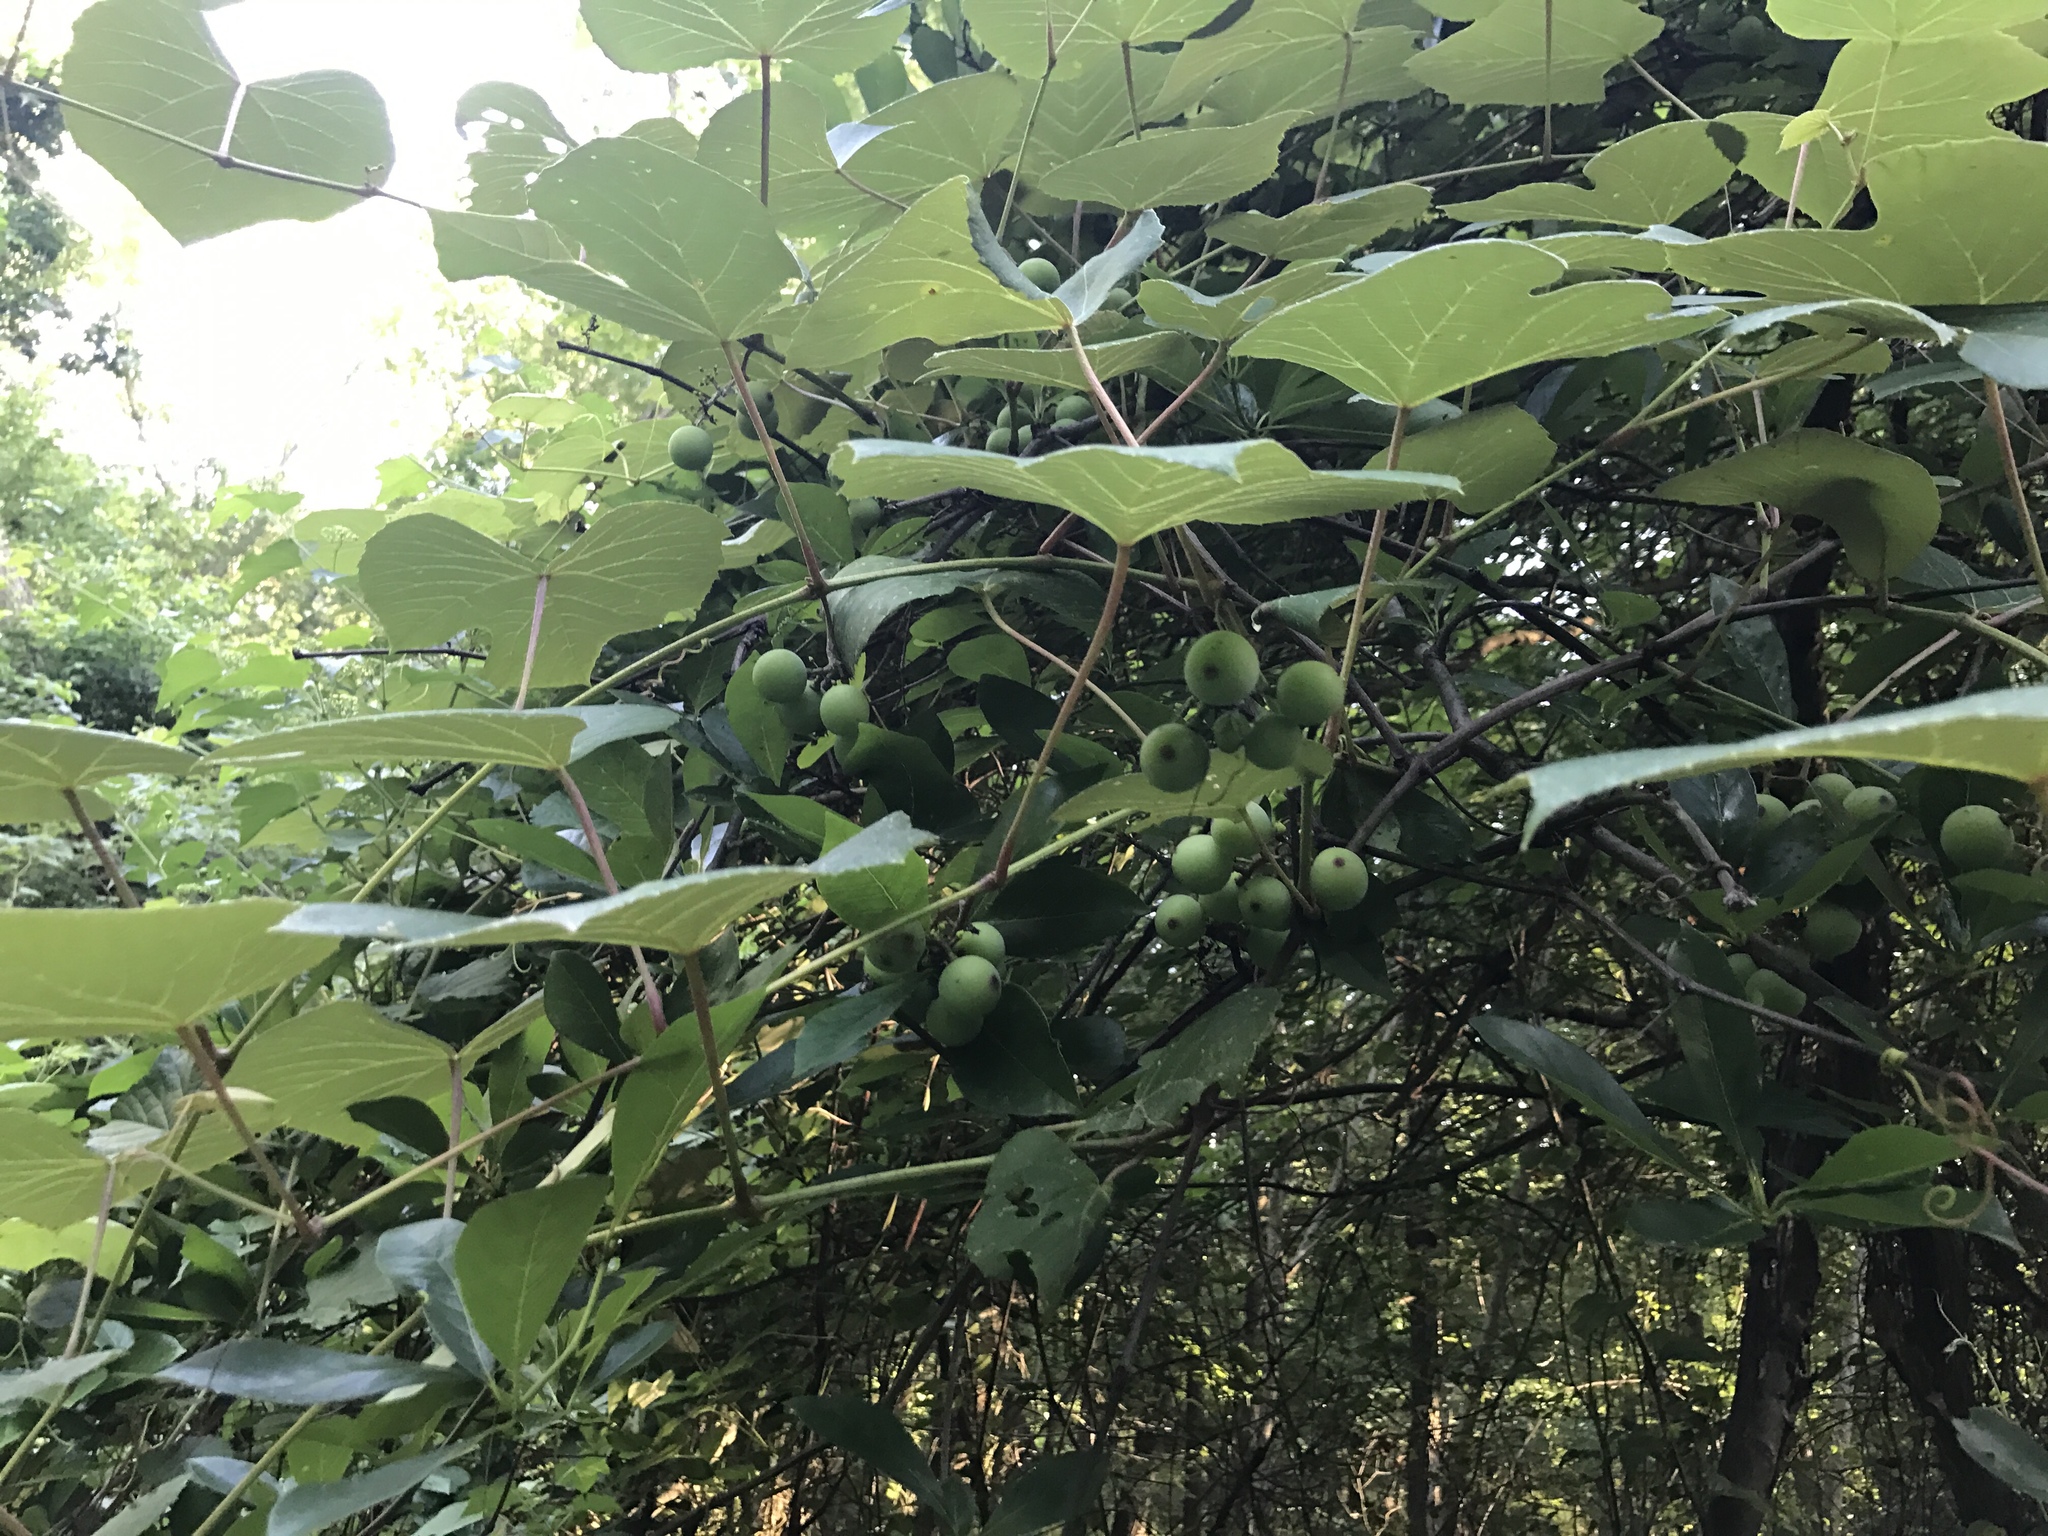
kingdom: Plantae
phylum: Tracheophyta
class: Magnoliopsida
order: Vitales
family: Vitaceae
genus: Vitis
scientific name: Vitis aestivalis
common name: Pigeon grape
